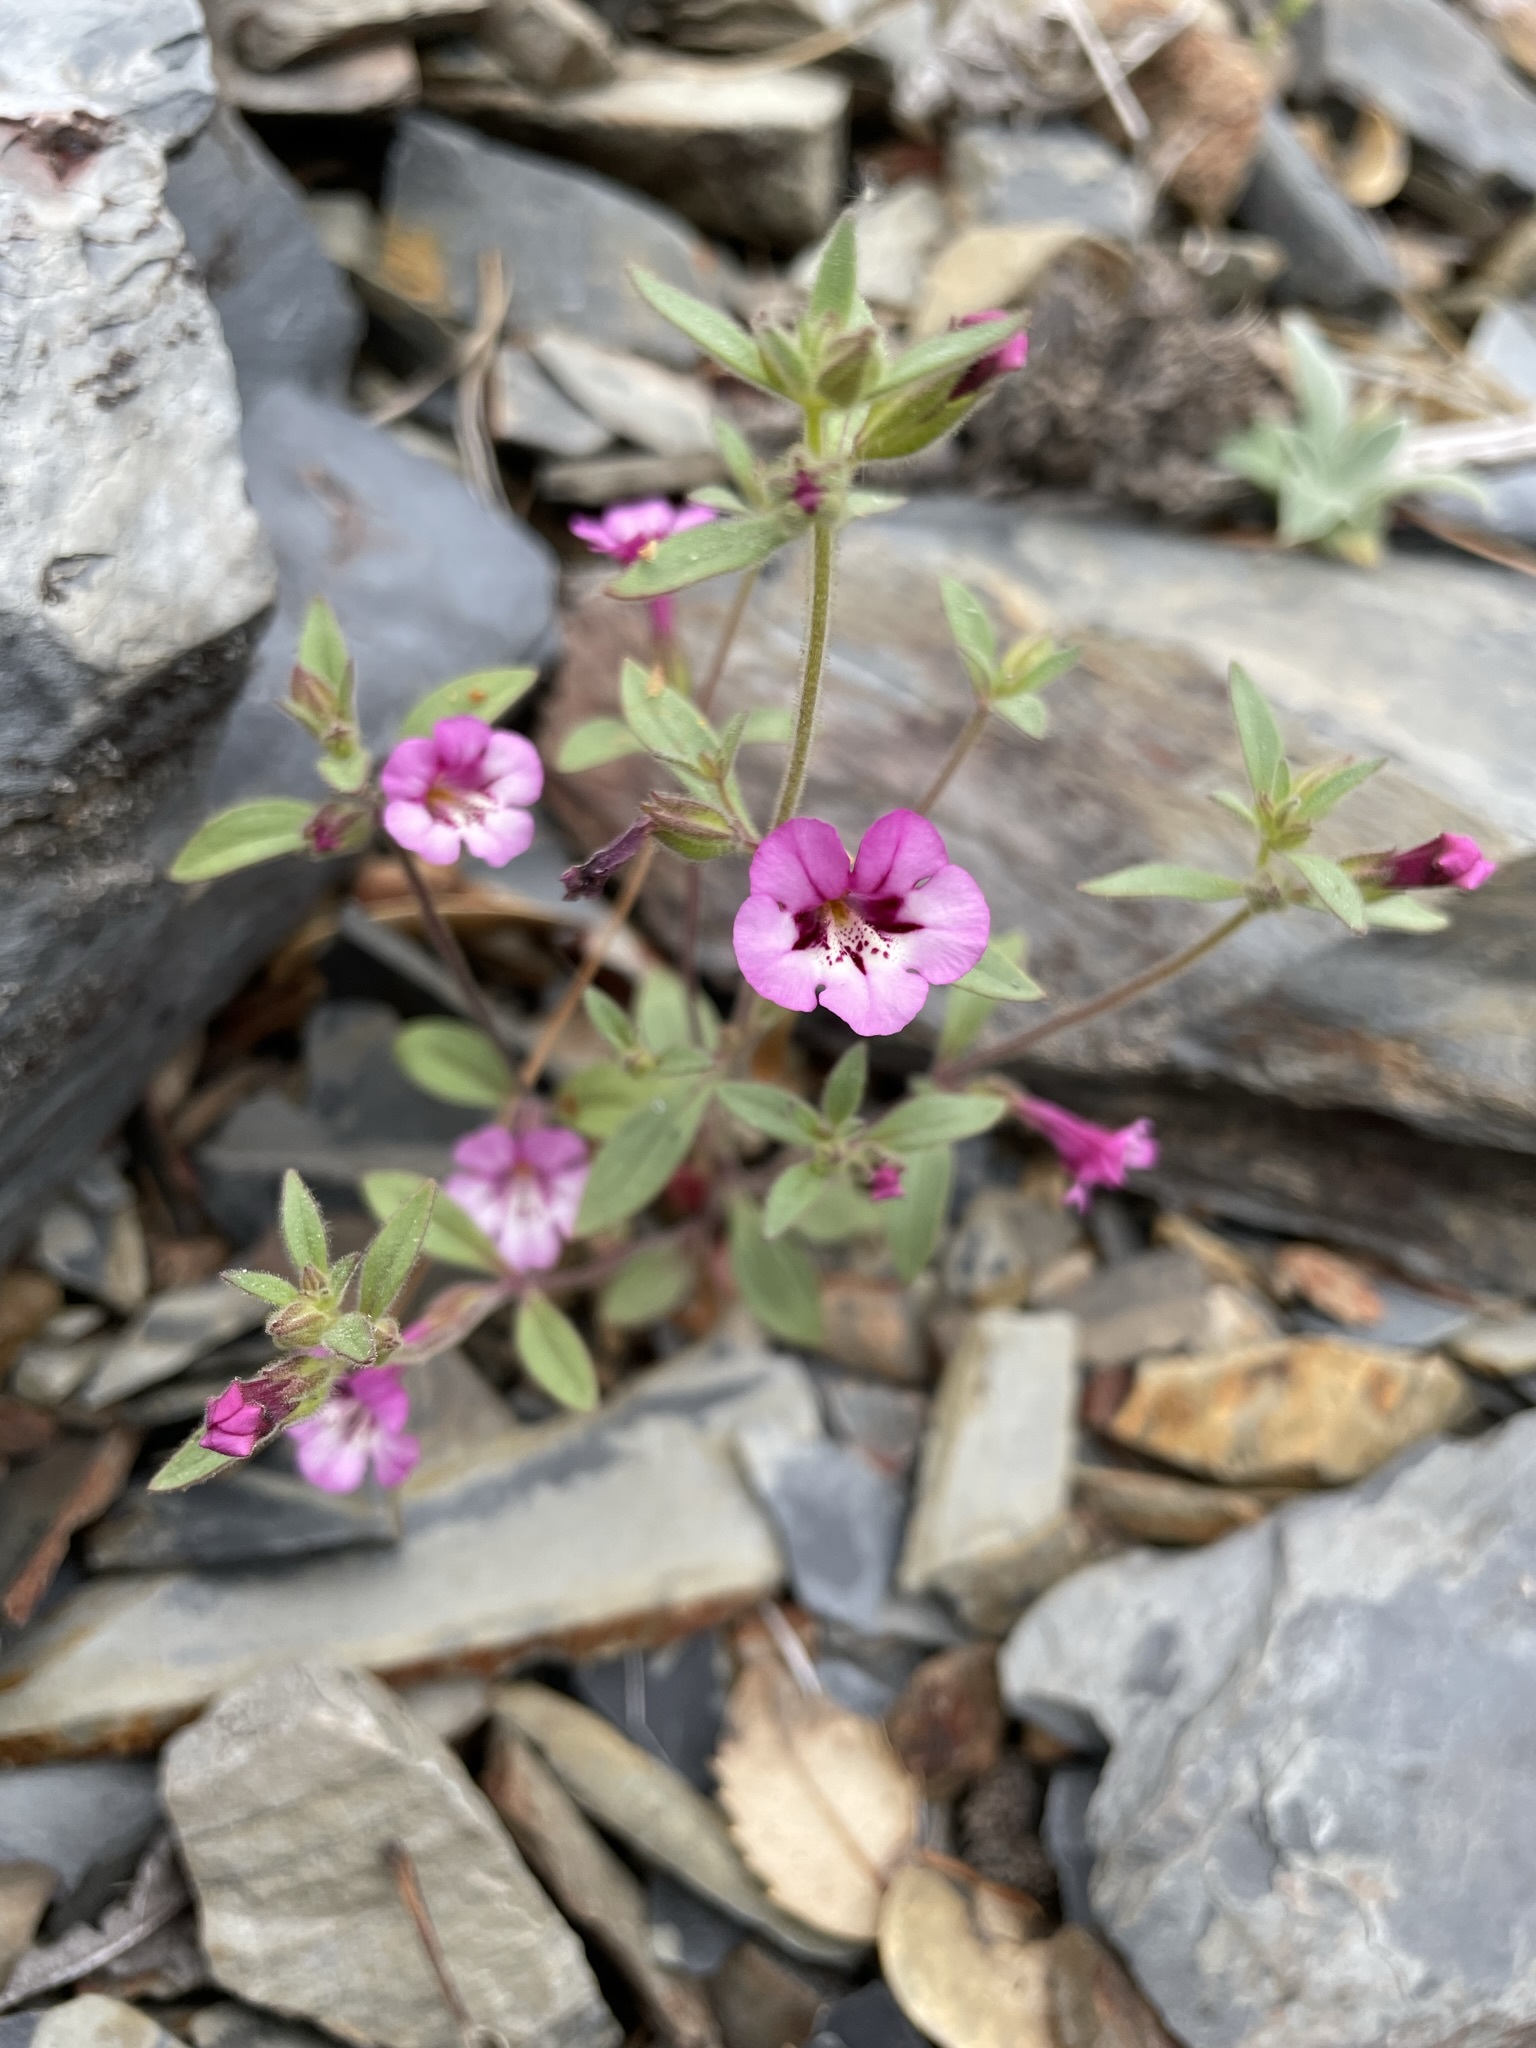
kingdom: Plantae
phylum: Tracheophyta
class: Magnoliopsida
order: Lamiales
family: Phrymaceae
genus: Diplacus
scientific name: Diplacus layneae
